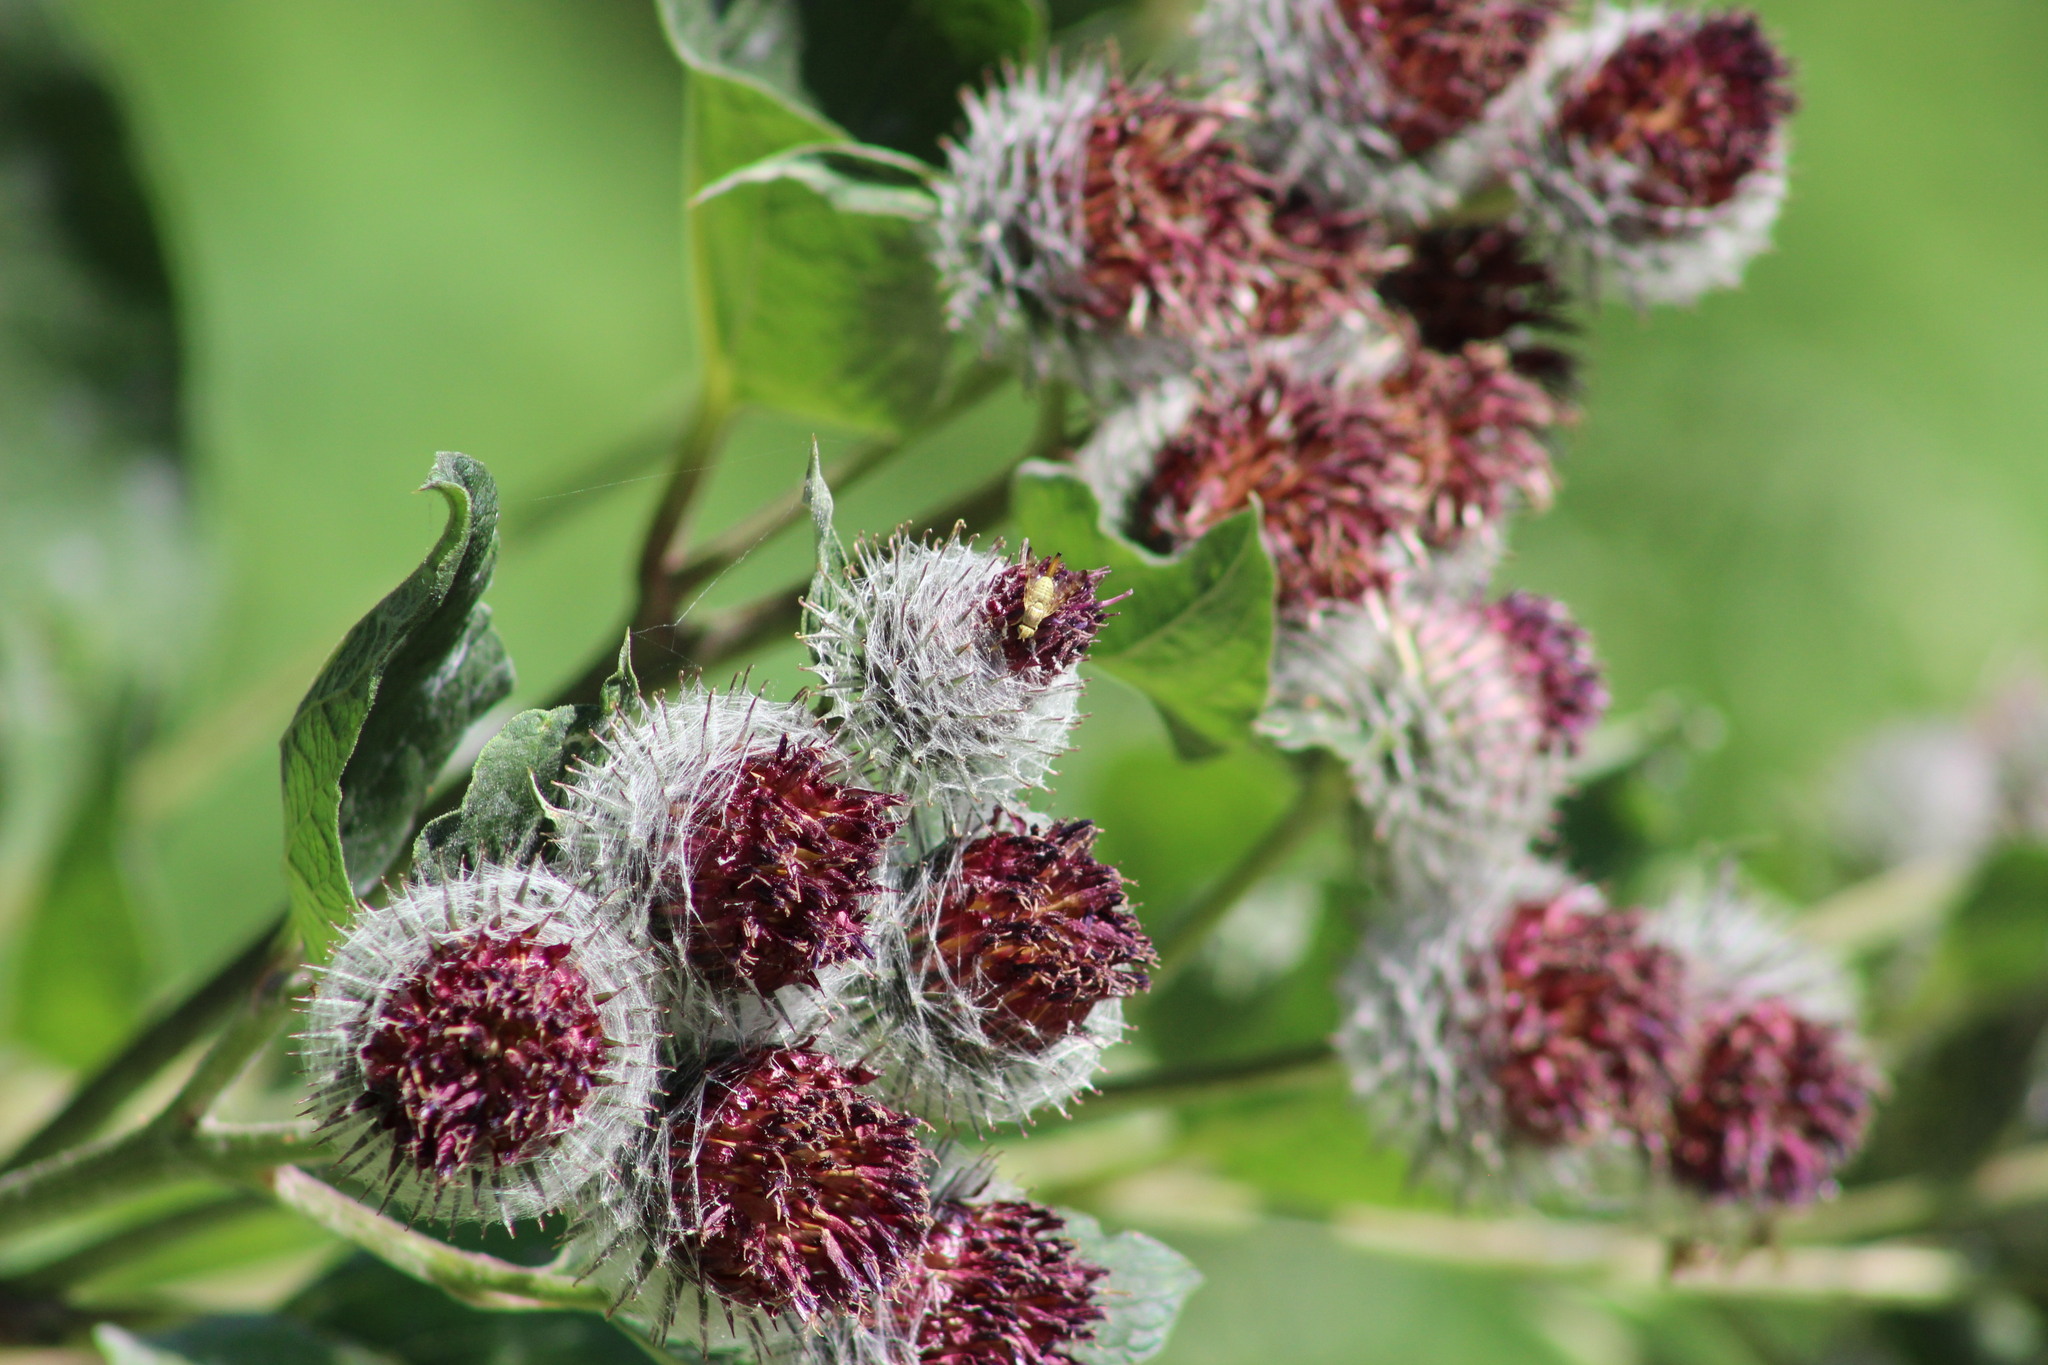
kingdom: Plantae
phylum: Tracheophyta
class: Magnoliopsida
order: Asterales
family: Asteraceae
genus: Arctium
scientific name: Arctium tomentosum
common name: Woolly burdock
